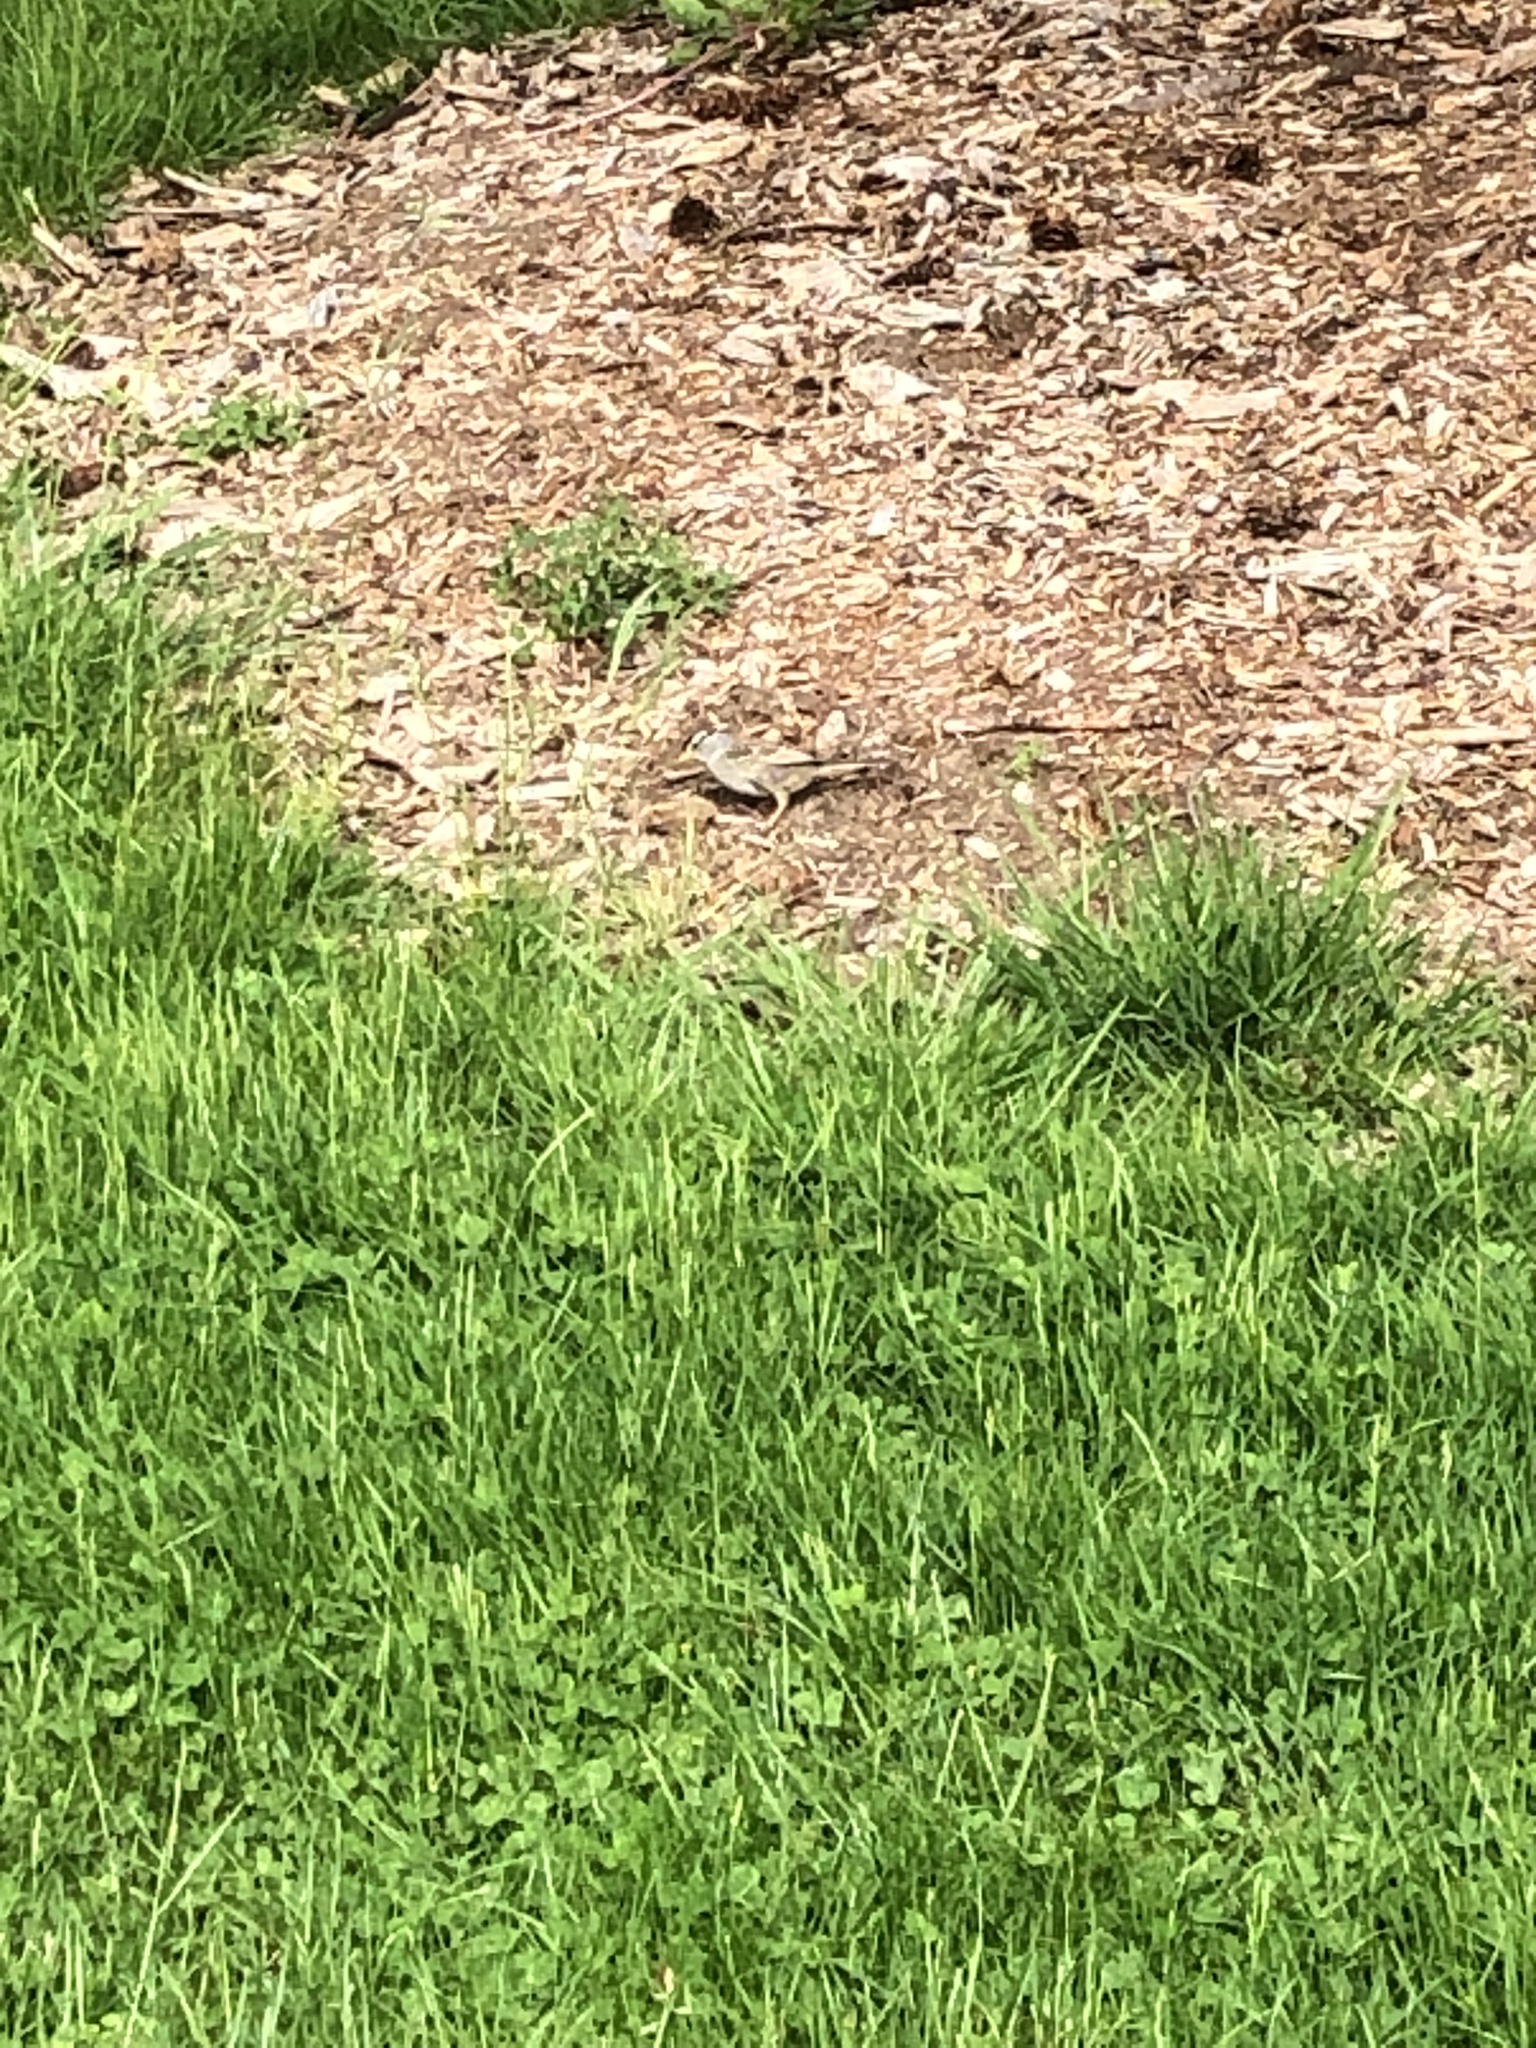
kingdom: Animalia
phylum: Chordata
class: Aves
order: Passeriformes
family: Passerellidae
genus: Zonotrichia
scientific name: Zonotrichia leucophrys
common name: White-crowned sparrow
